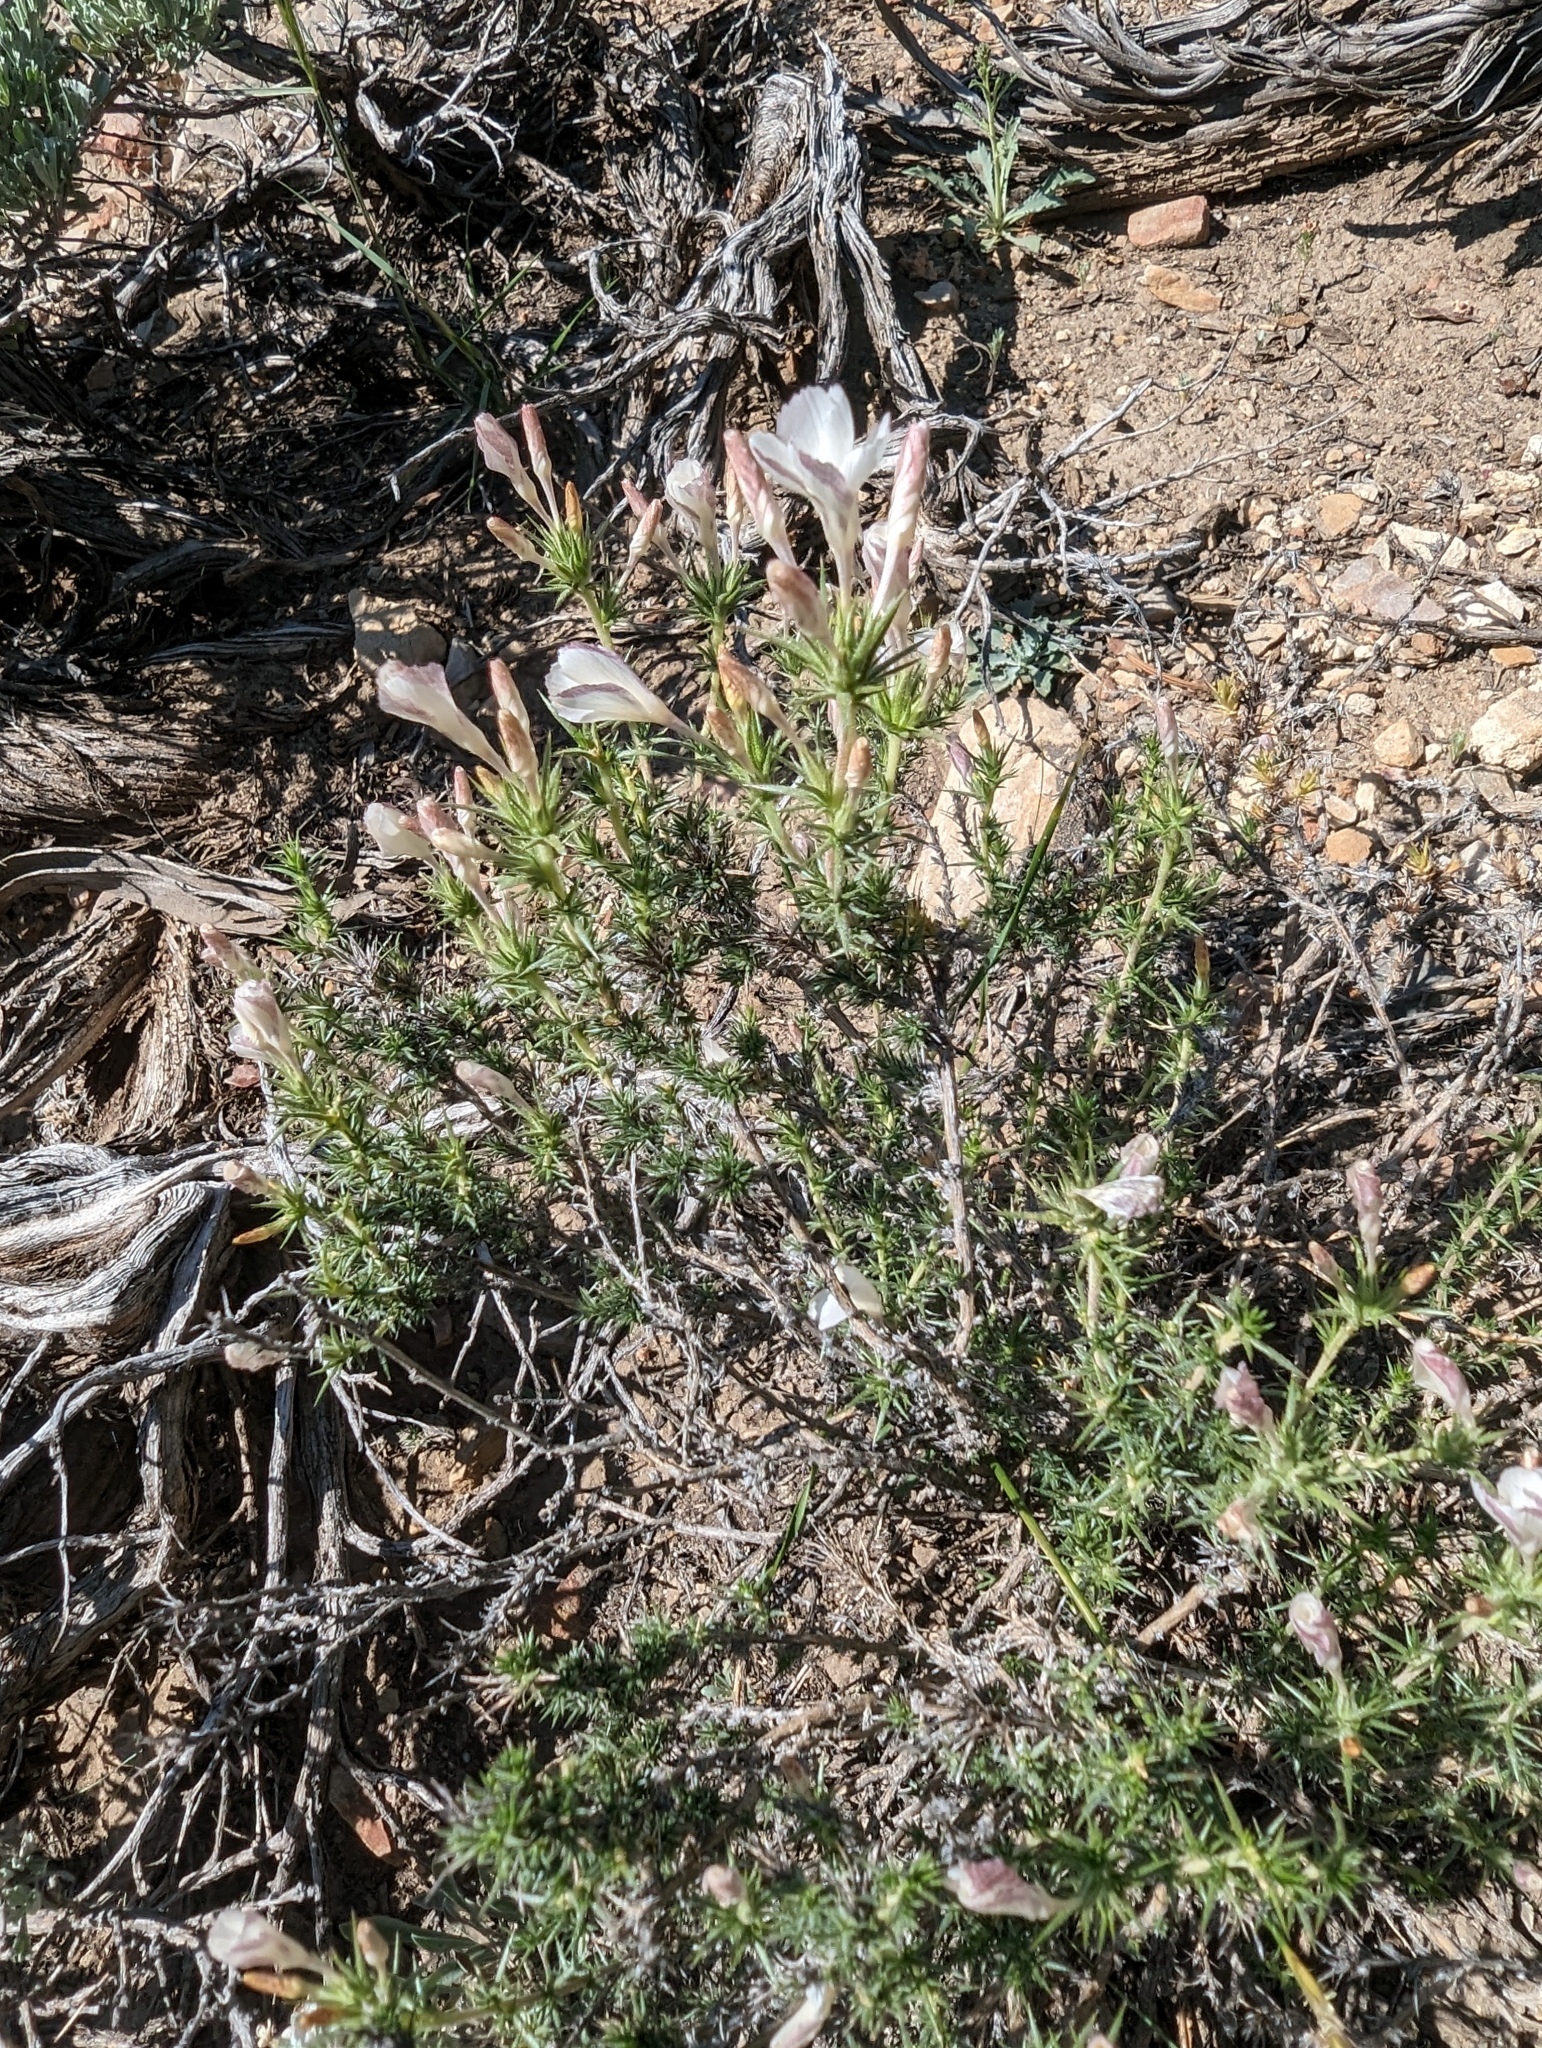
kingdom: Plantae
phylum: Tracheophyta
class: Magnoliopsida
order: Ericales
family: Polemoniaceae
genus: Linanthus
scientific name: Linanthus pungens
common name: Granite prickly phlox
